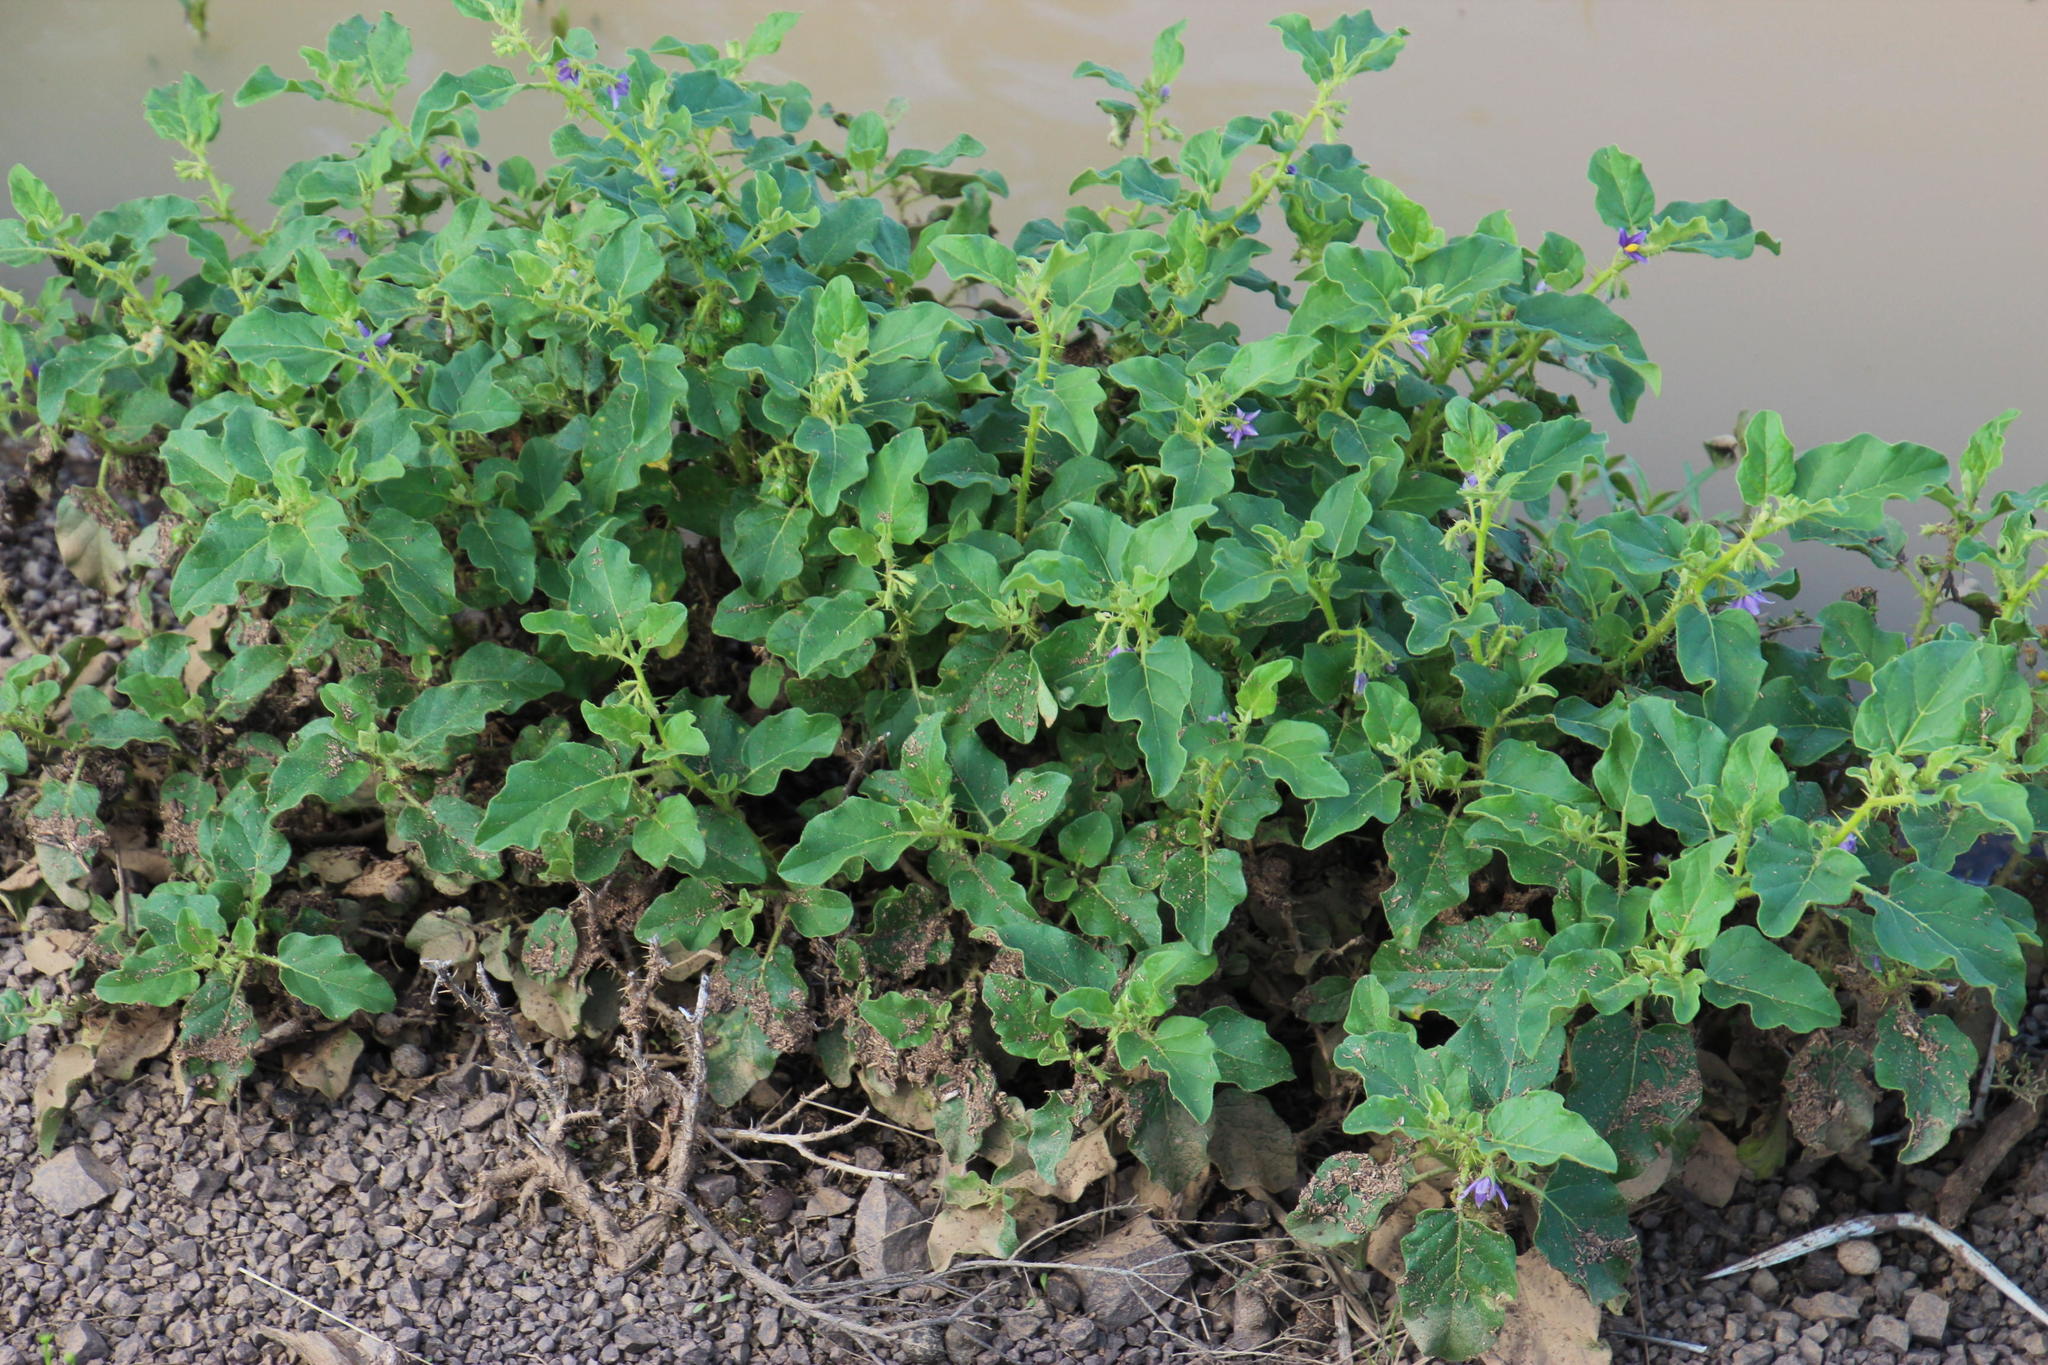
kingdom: Plantae
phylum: Tracheophyta
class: Magnoliopsida
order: Solanales
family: Solanaceae
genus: Solanum
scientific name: Solanum tomentosum
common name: Wild aubergine
